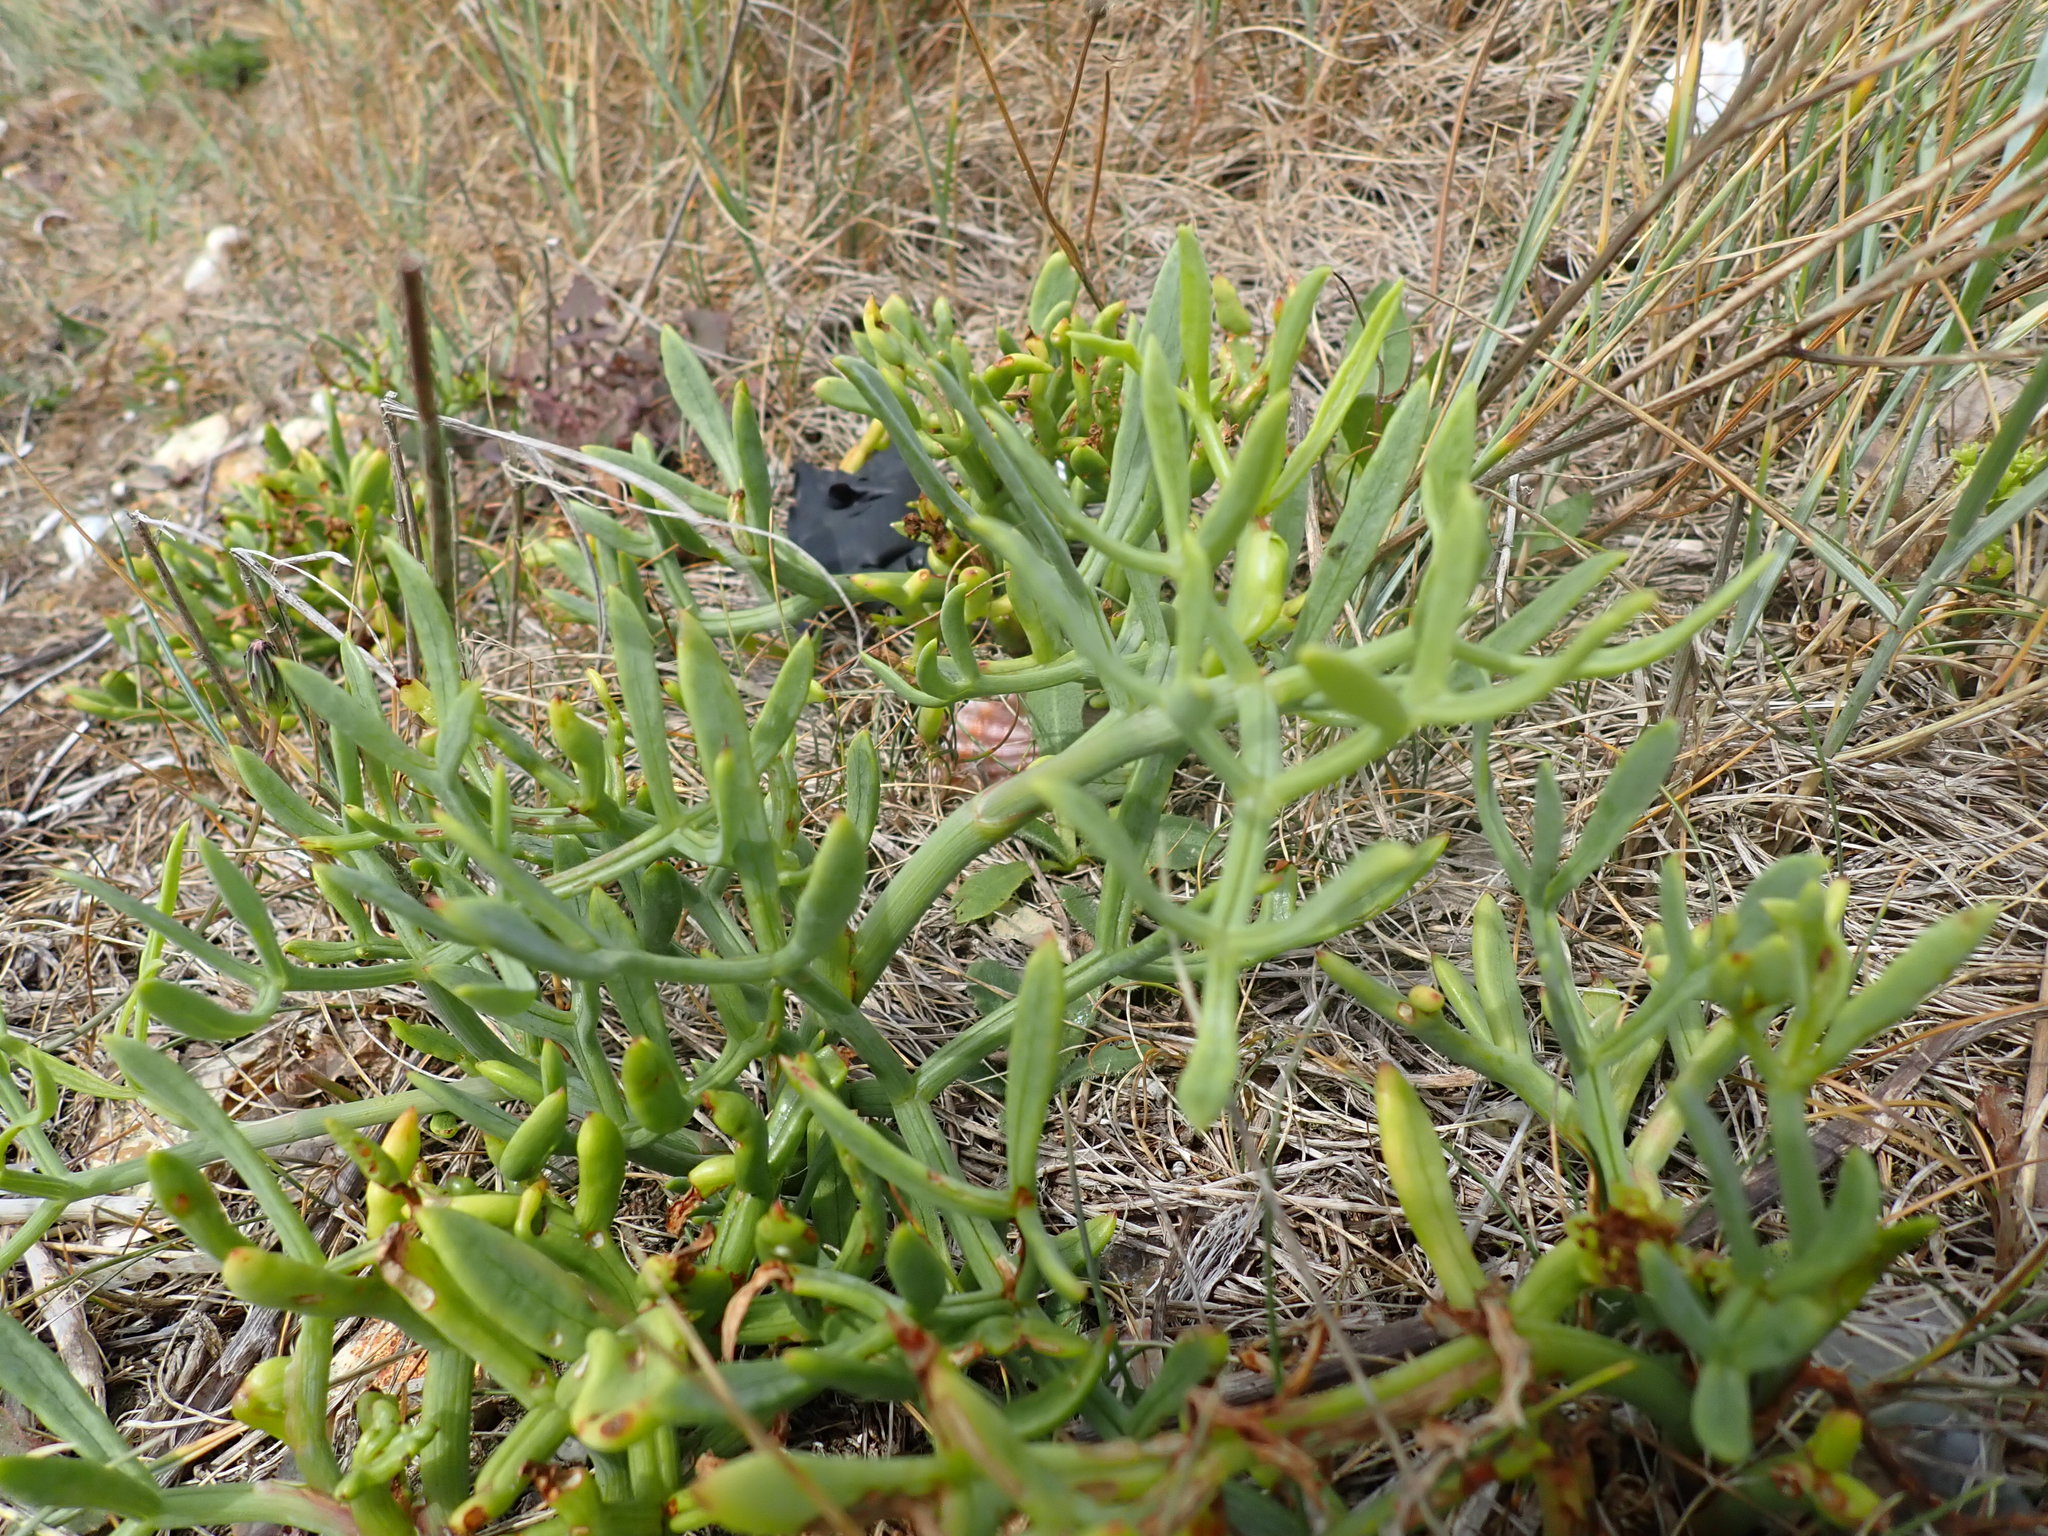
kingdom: Plantae
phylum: Tracheophyta
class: Magnoliopsida
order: Apiales
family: Apiaceae
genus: Crithmum
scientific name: Crithmum maritimum
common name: Rock samphire
